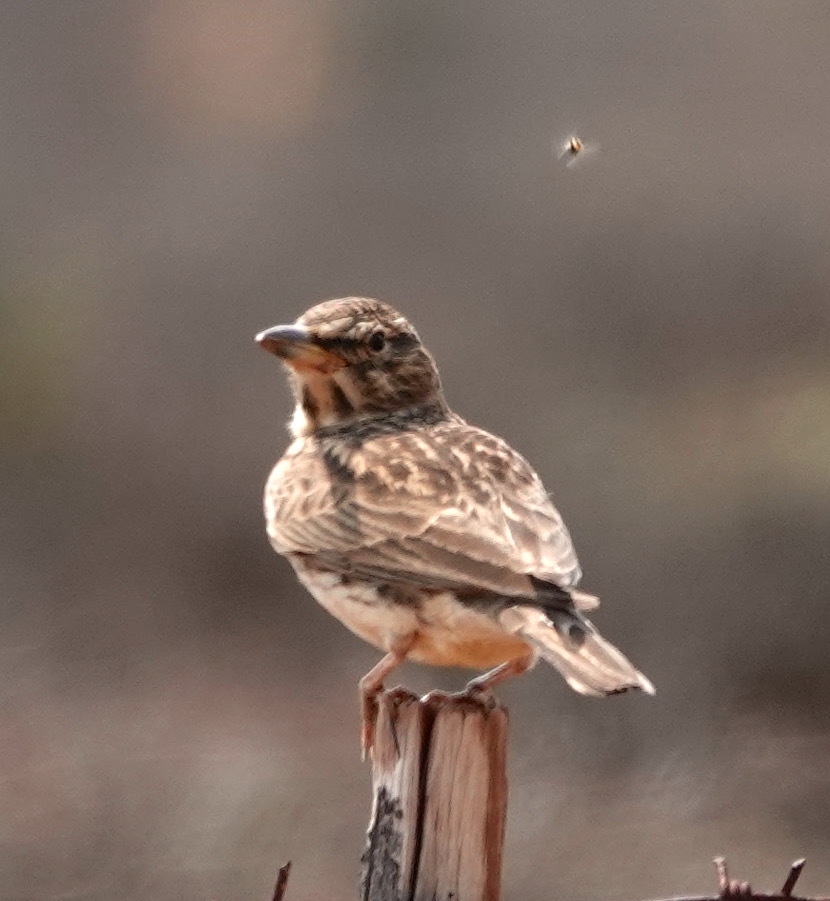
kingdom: Animalia
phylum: Chordata
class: Aves
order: Passeriformes
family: Alaudidae
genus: Galerida
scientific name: Galerida magnirostris
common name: Large-billed lark
